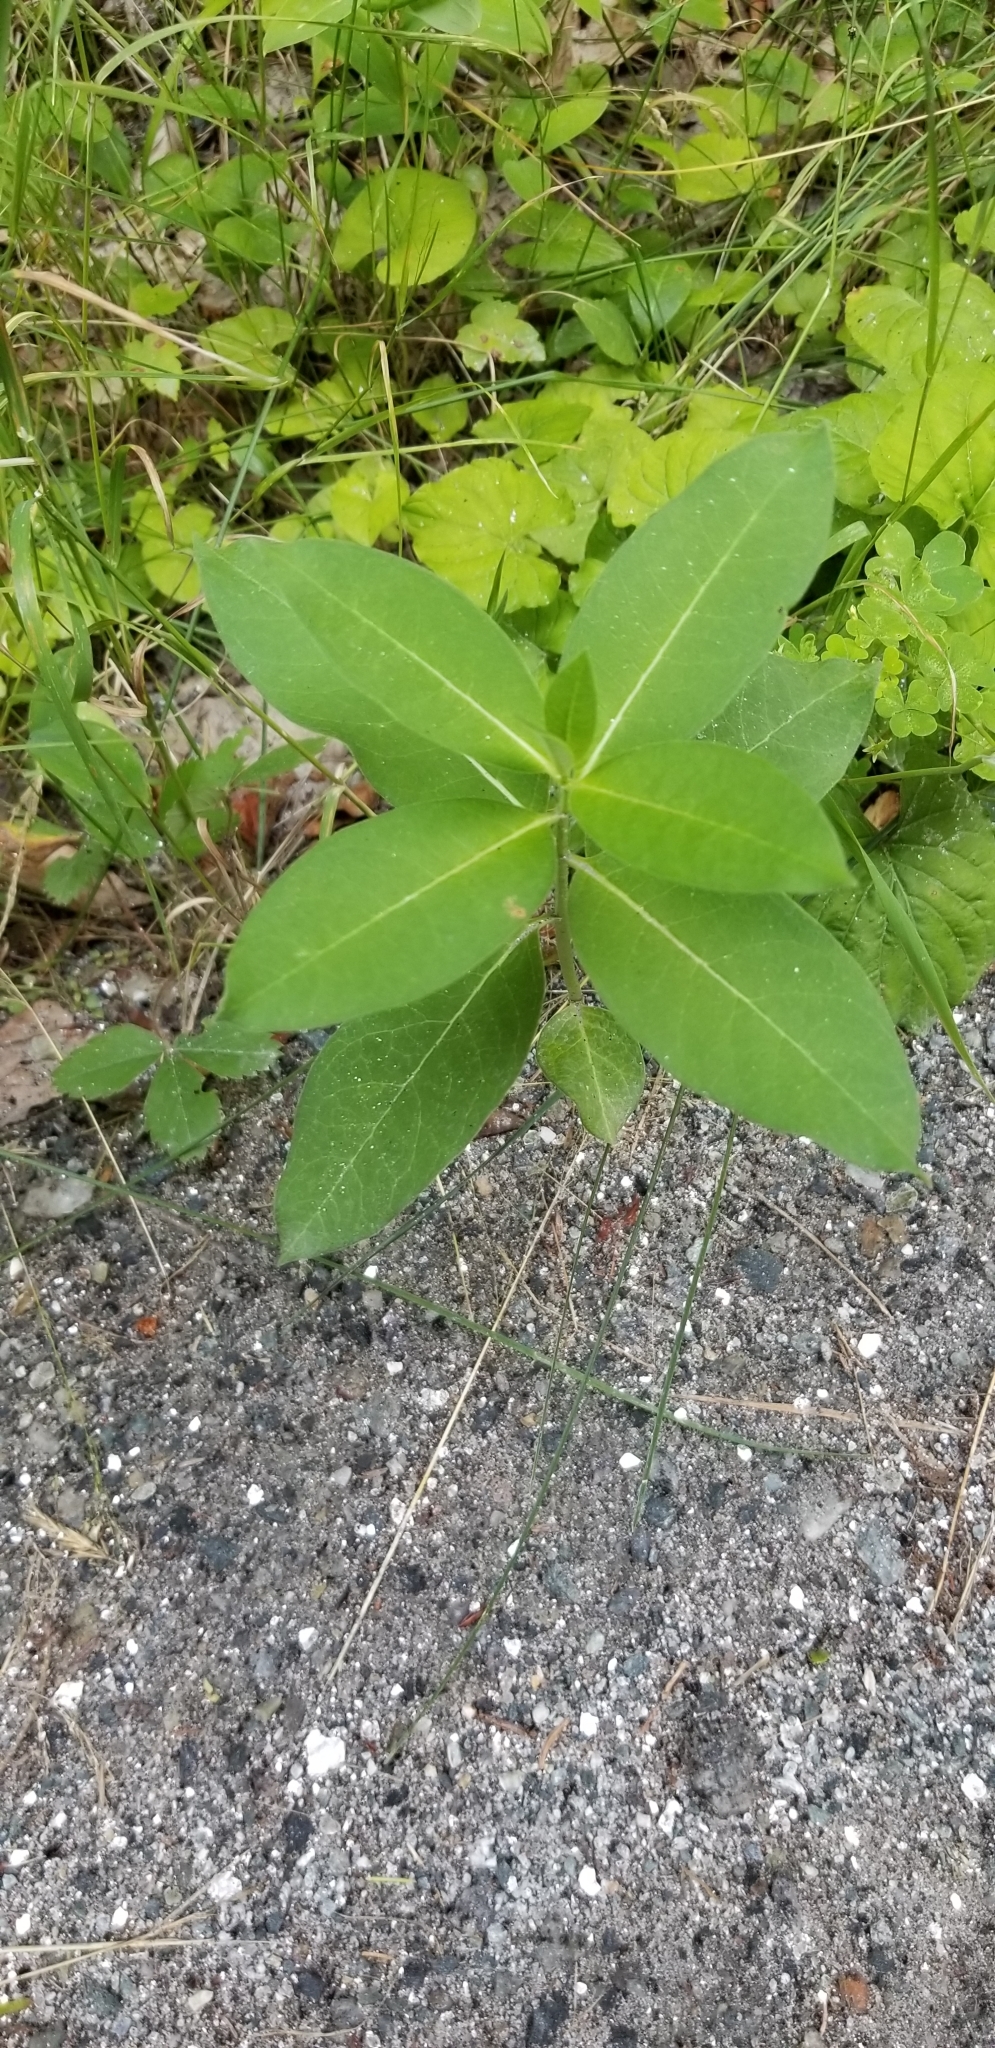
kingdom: Plantae
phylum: Tracheophyta
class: Magnoliopsida
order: Gentianales
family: Apocynaceae
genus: Asclepias
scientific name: Asclepias syriaca
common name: Common milkweed
